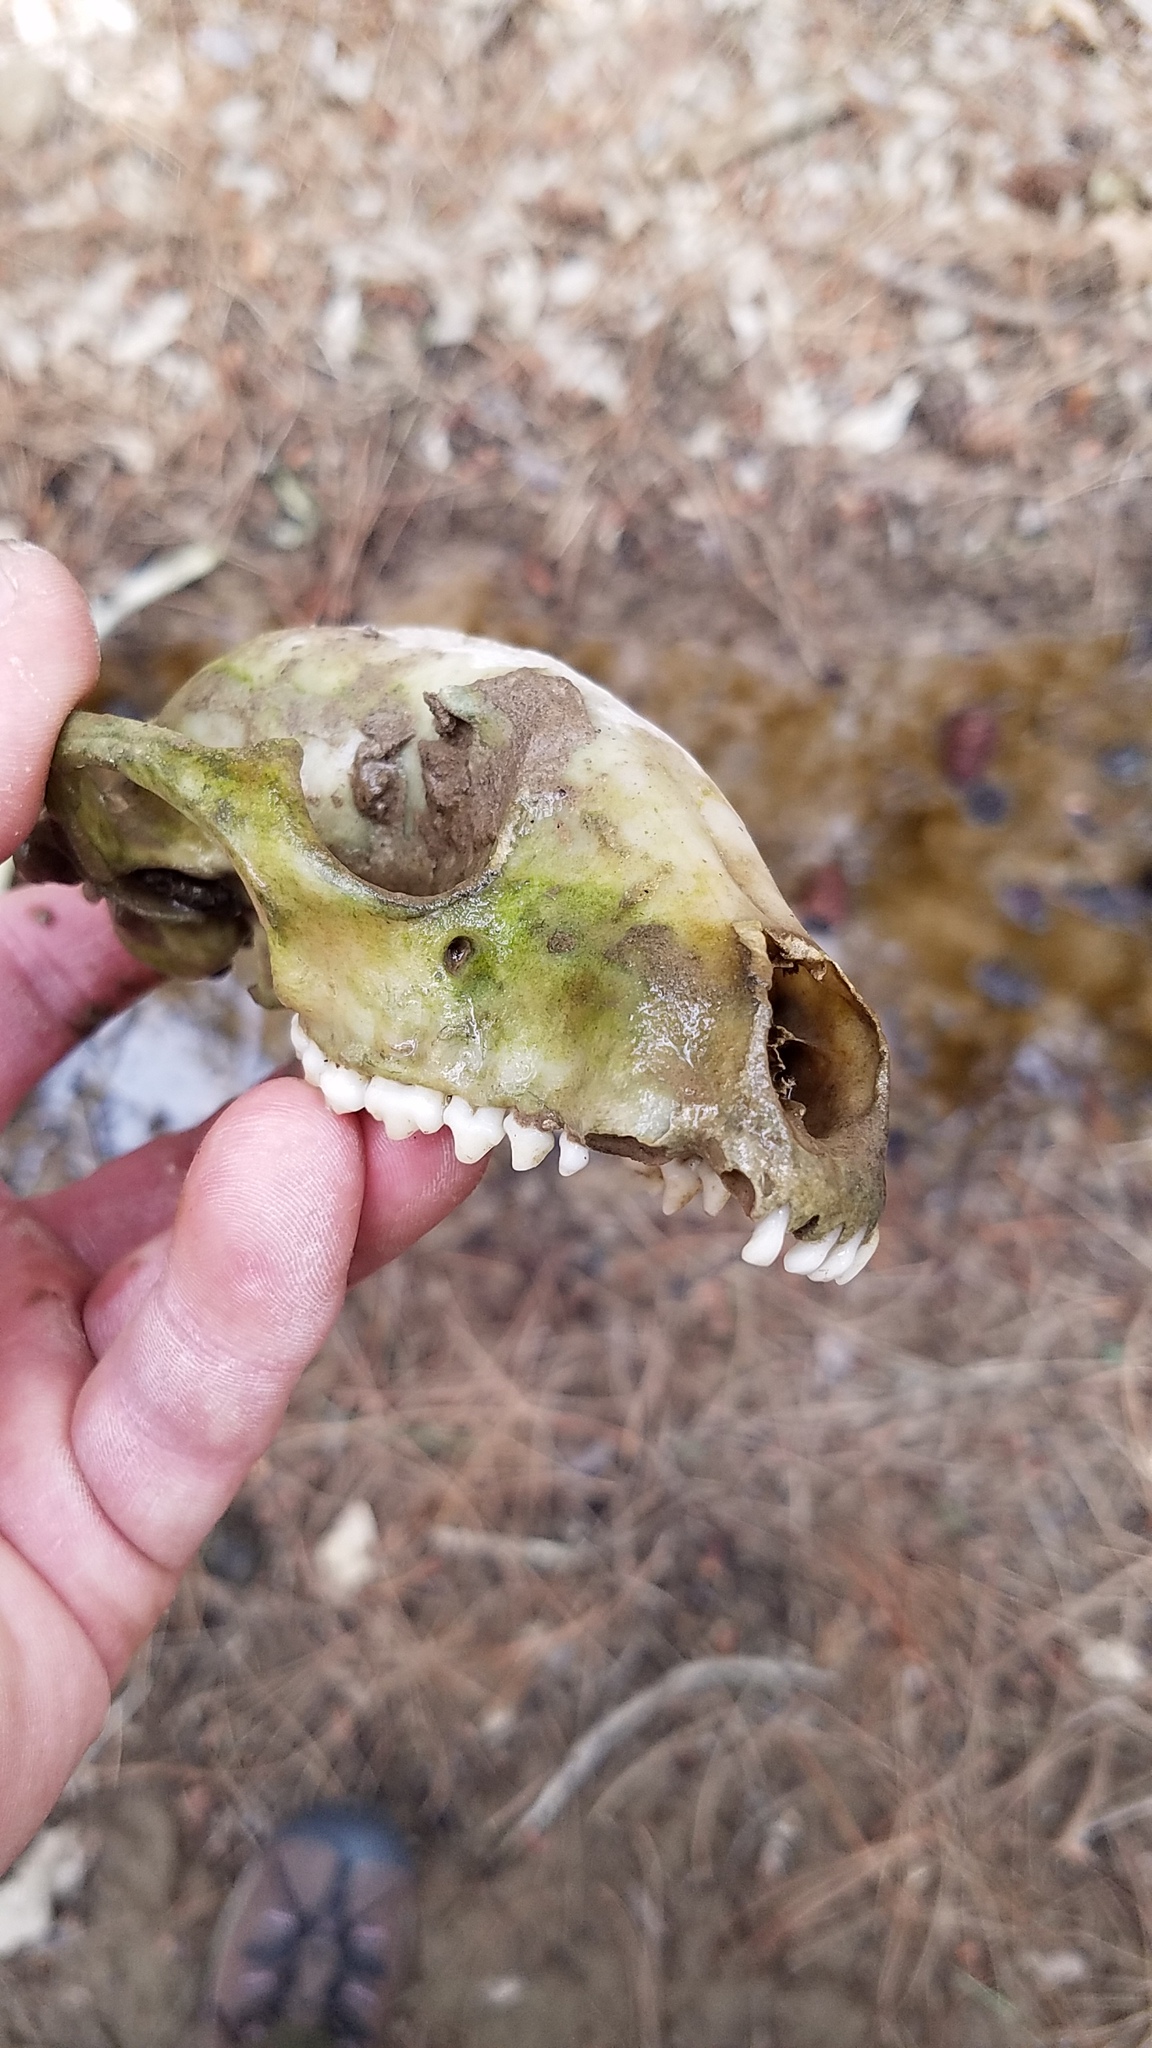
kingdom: Animalia
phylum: Chordata
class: Mammalia
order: Carnivora
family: Procyonidae
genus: Procyon
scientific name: Procyon lotor
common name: Raccoon
